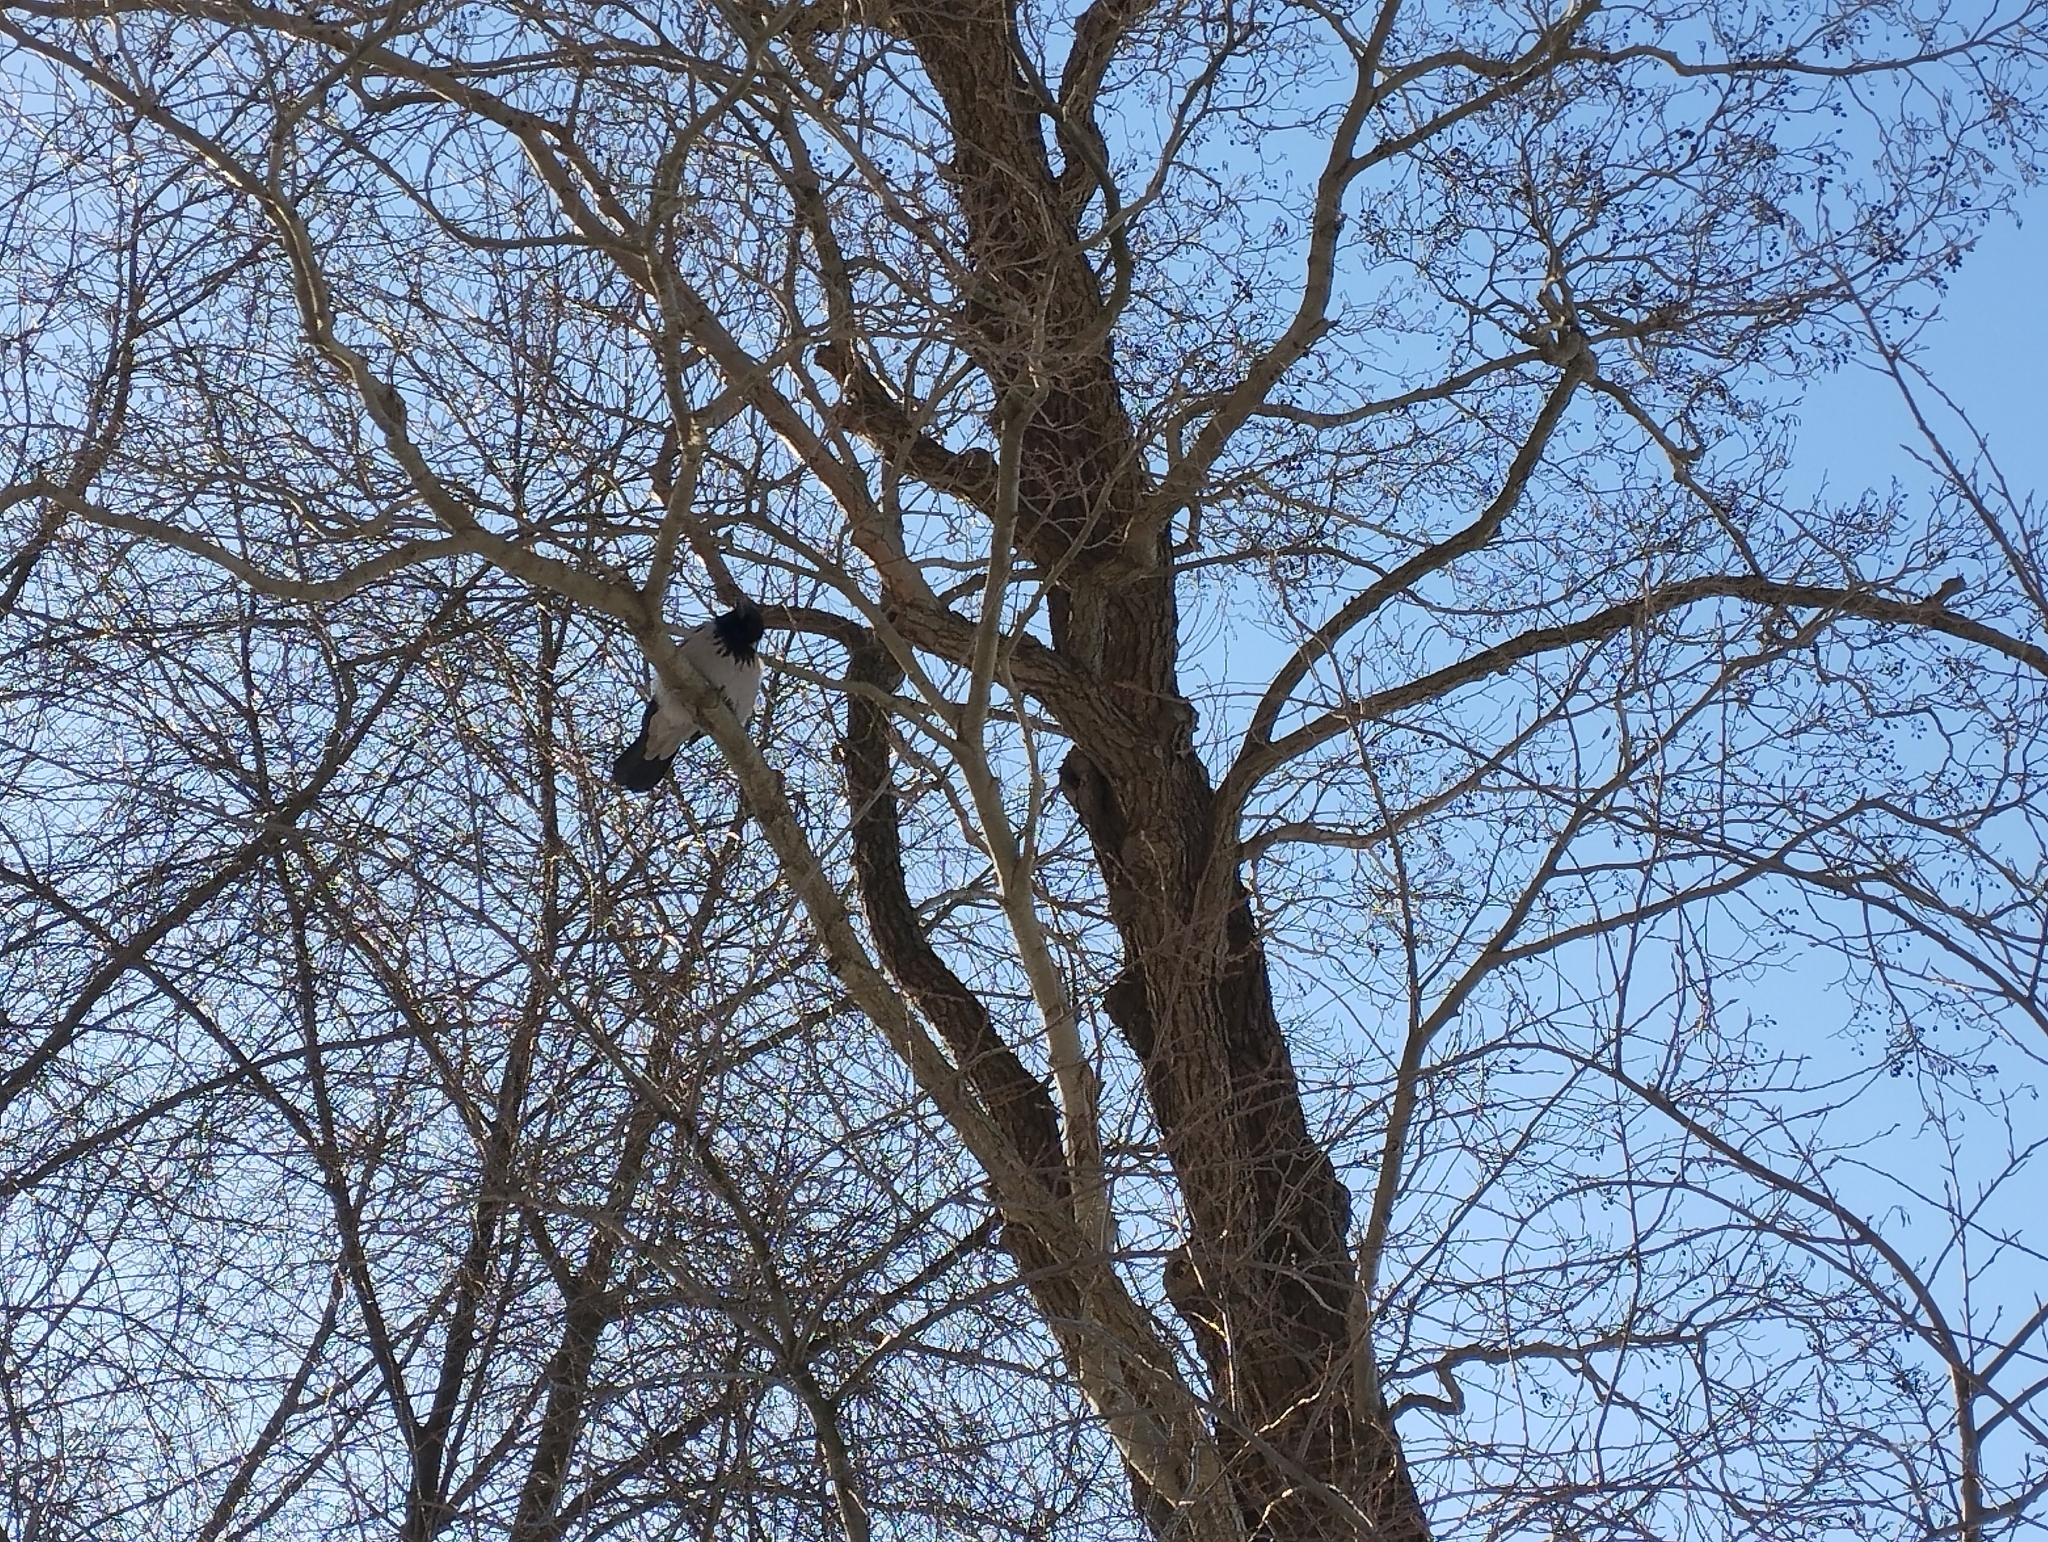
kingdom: Animalia
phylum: Chordata
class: Aves
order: Passeriformes
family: Corvidae
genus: Corvus
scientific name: Corvus cornix
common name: Hooded crow
